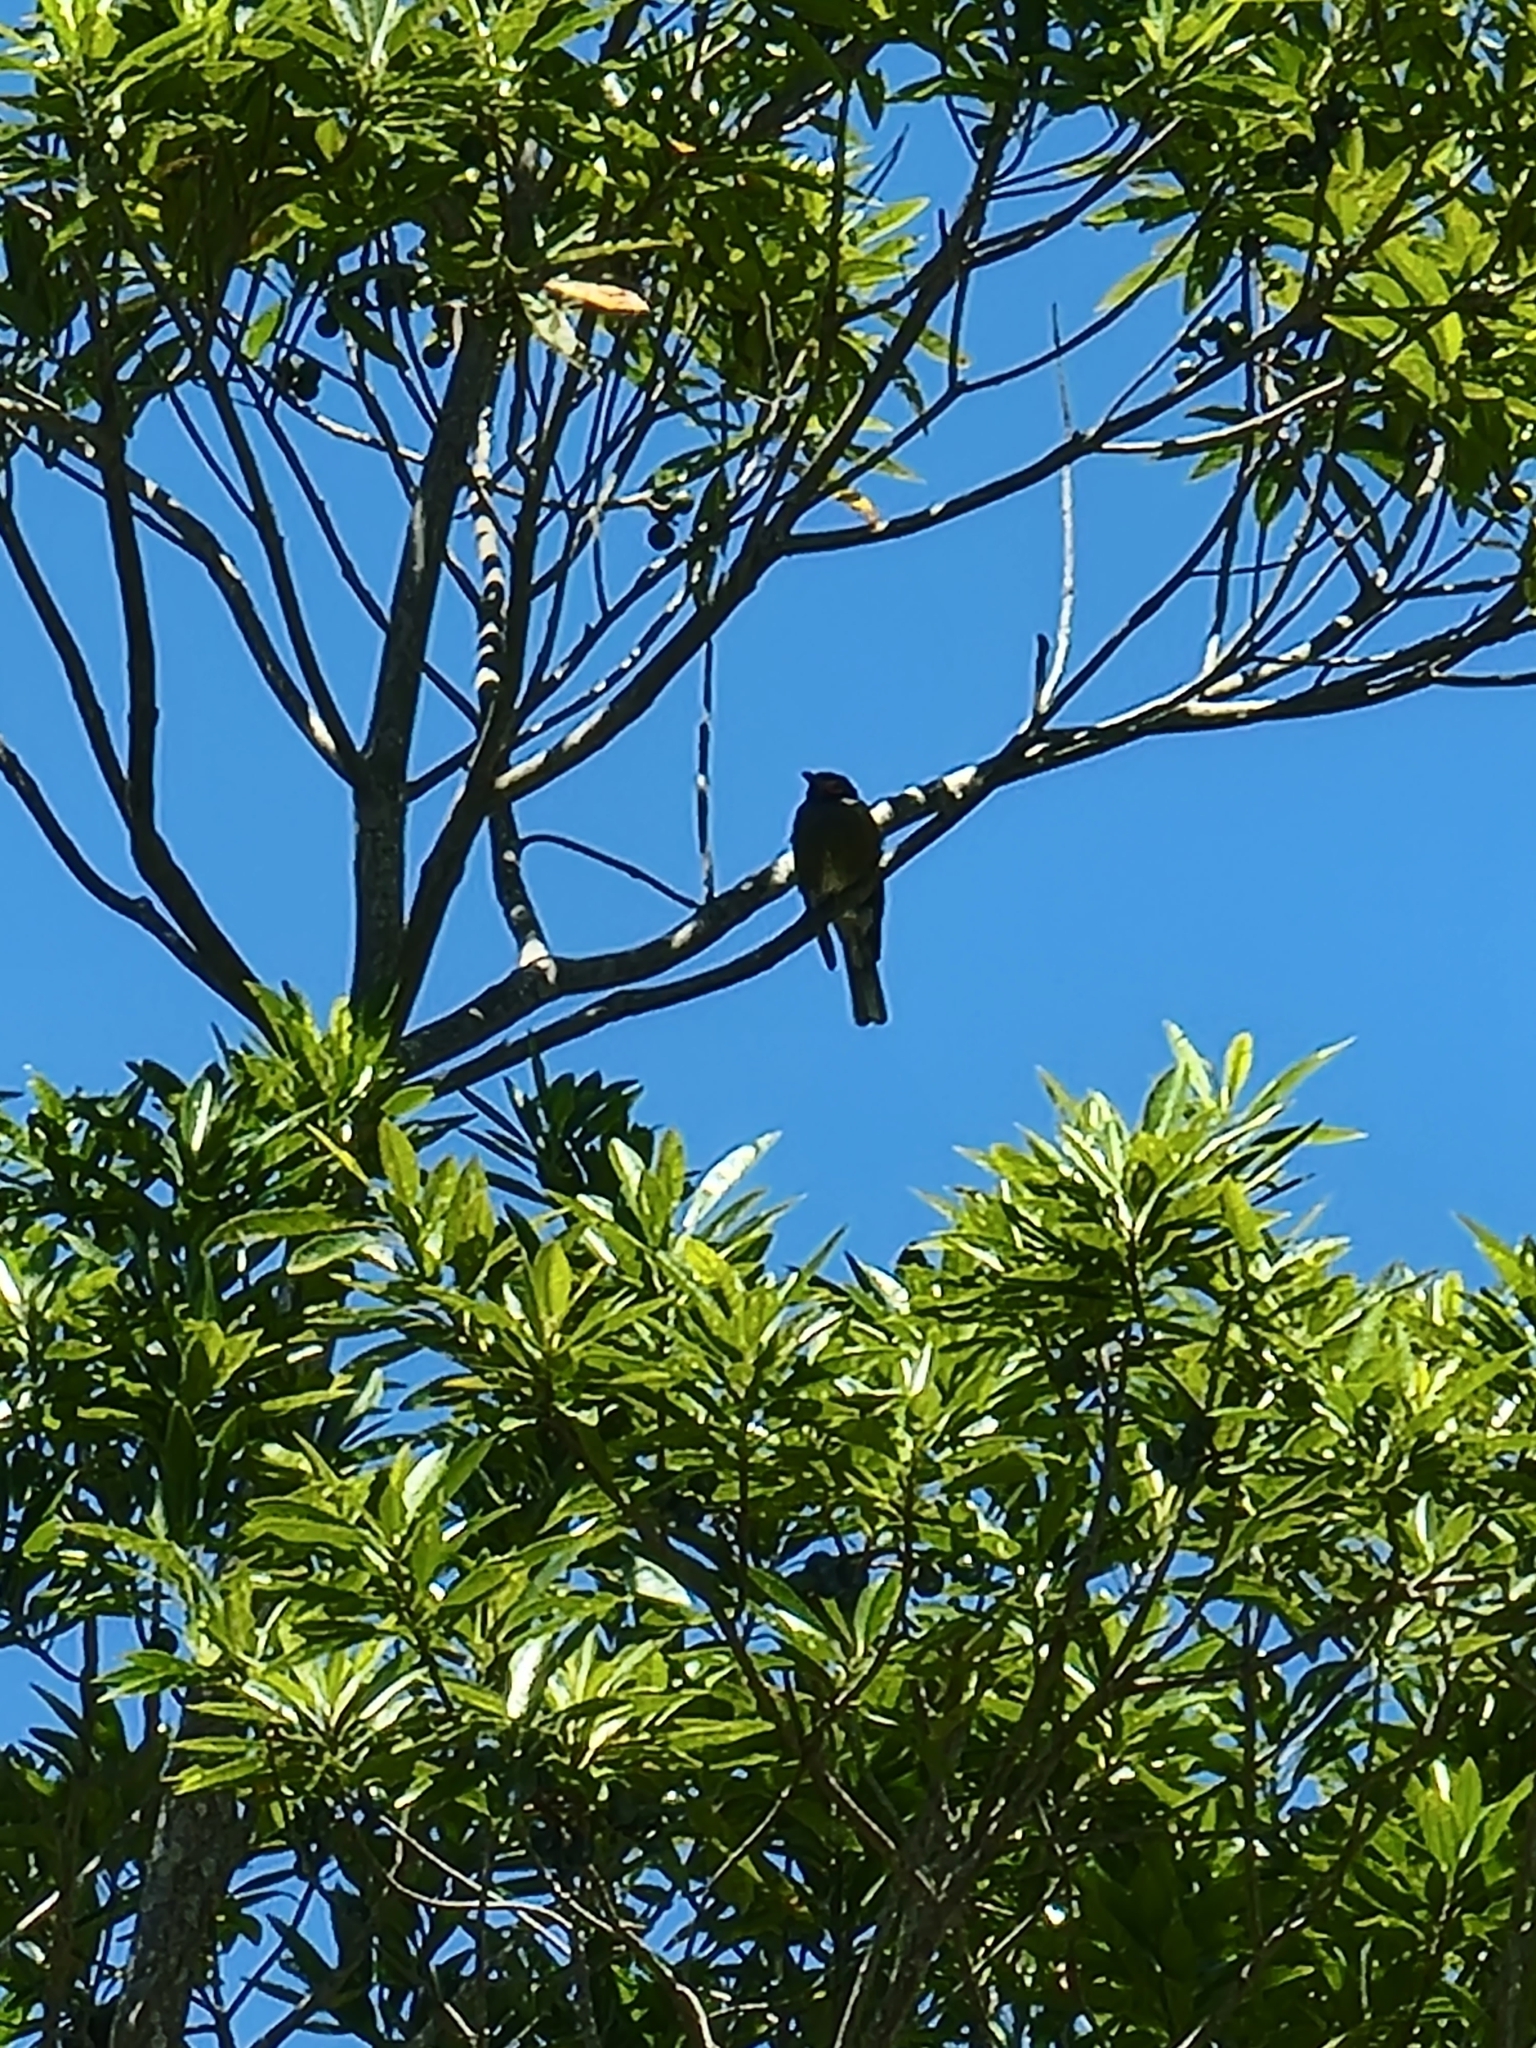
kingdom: Animalia
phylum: Chordata
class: Aves
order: Passeriformes
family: Oriolidae
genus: Sphecotheres
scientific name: Sphecotheres vieilloti
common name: Australasian figbird
